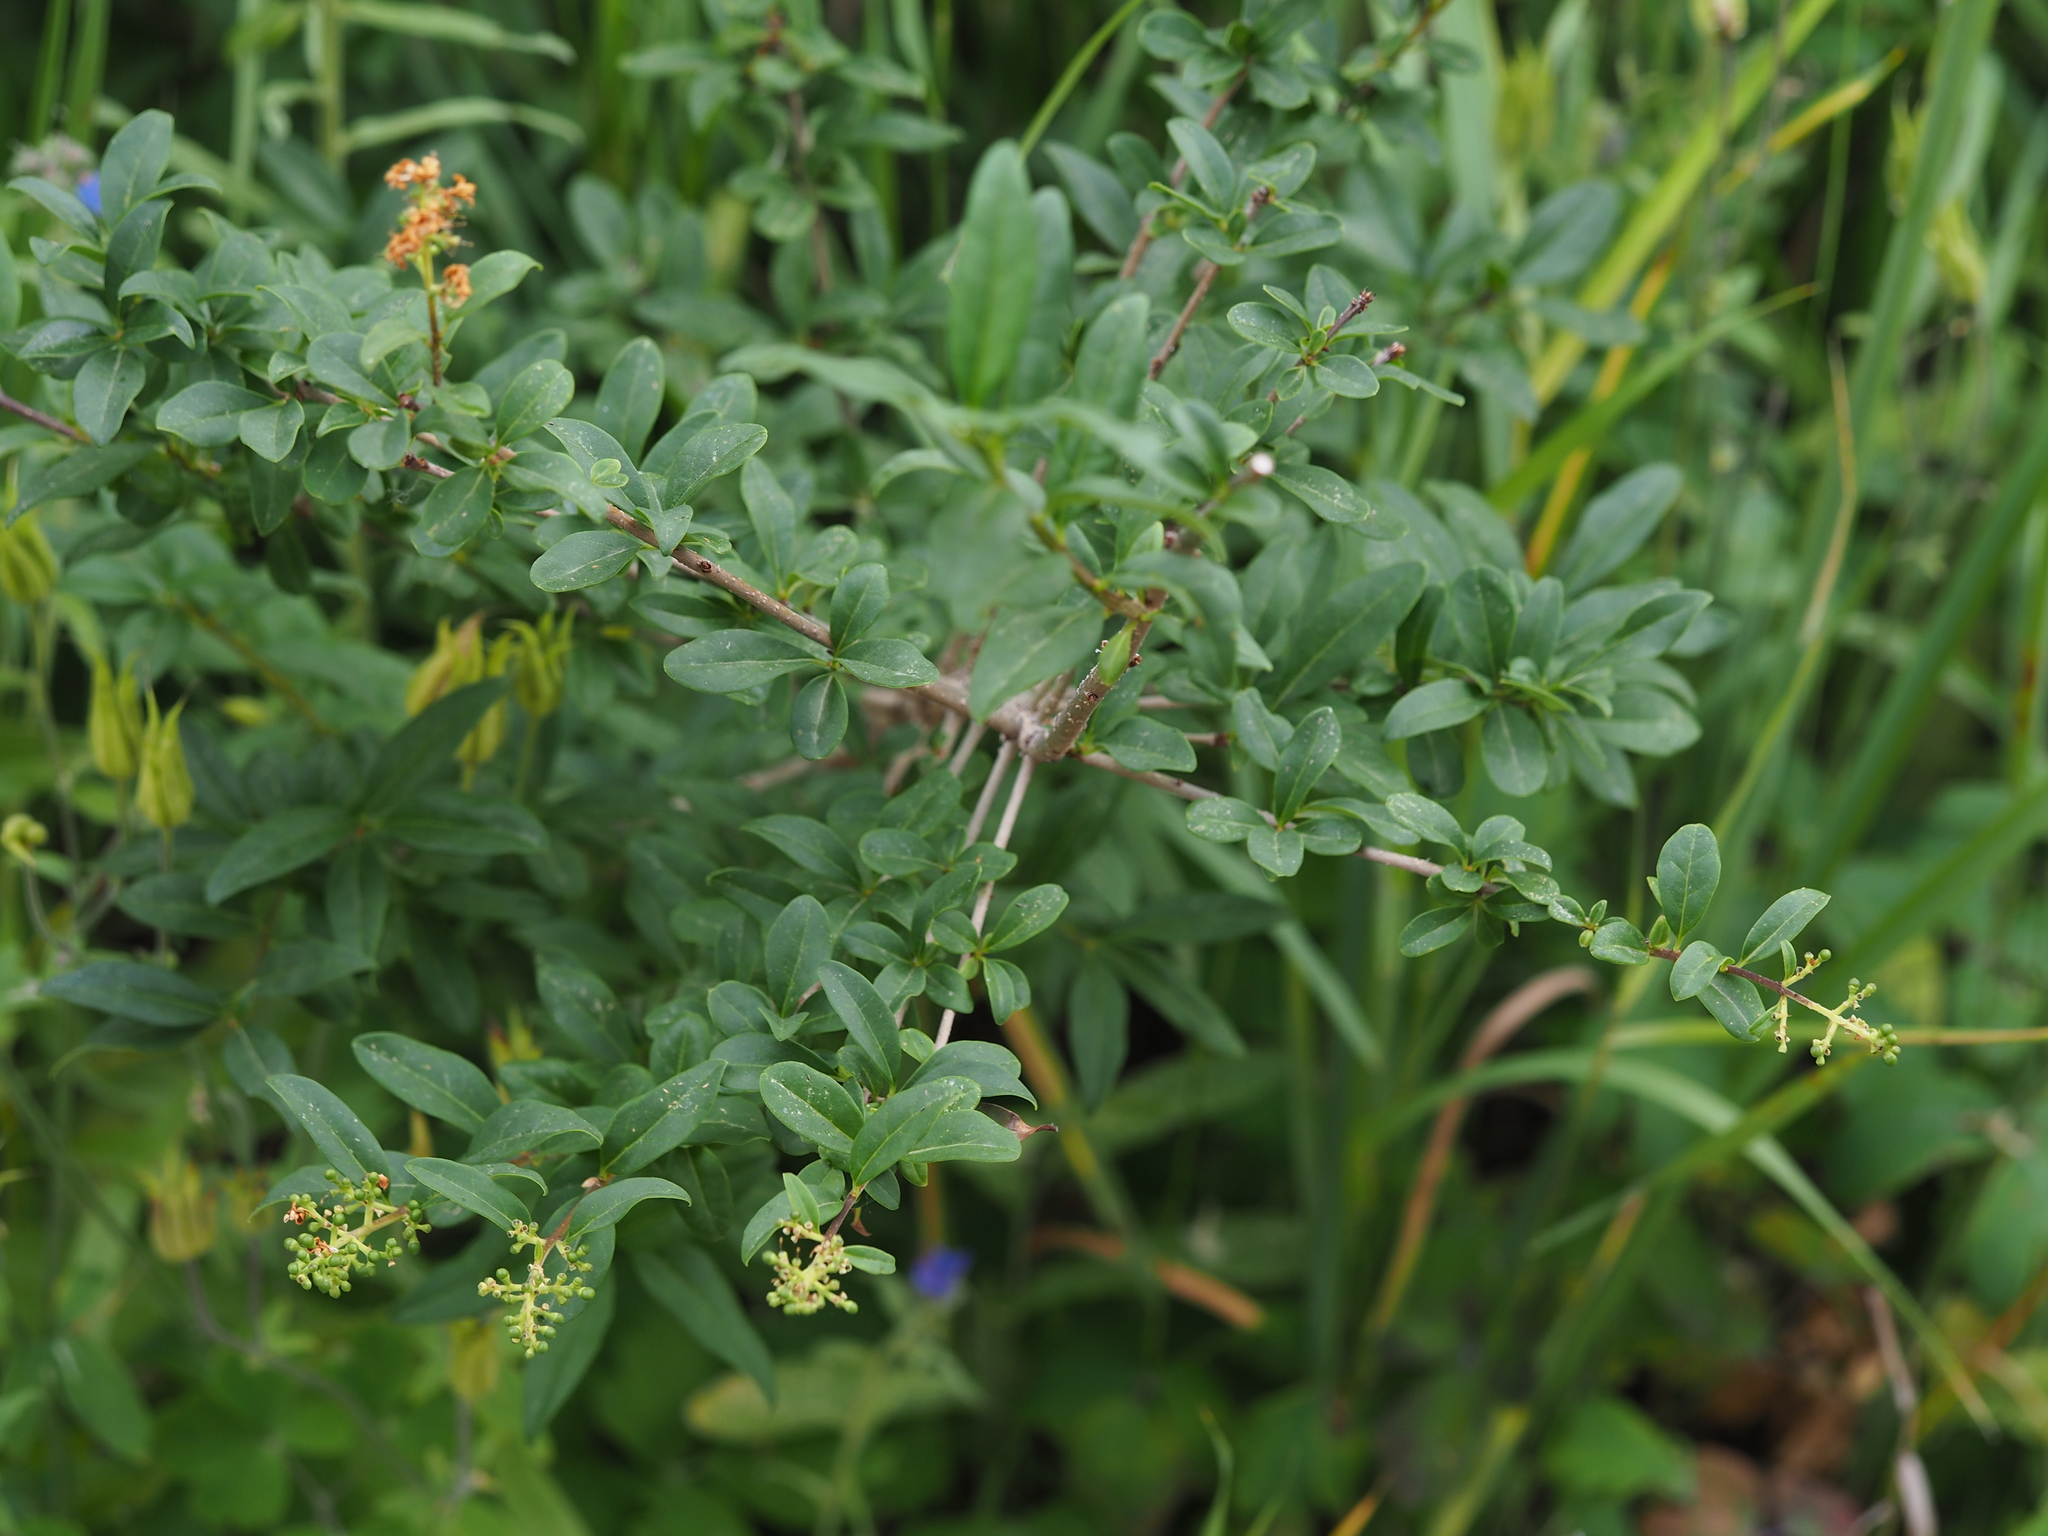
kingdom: Plantae
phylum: Tracheophyta
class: Magnoliopsida
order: Lamiales
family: Oleaceae
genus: Ligustrum
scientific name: Ligustrum vulgare
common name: Wild privet
